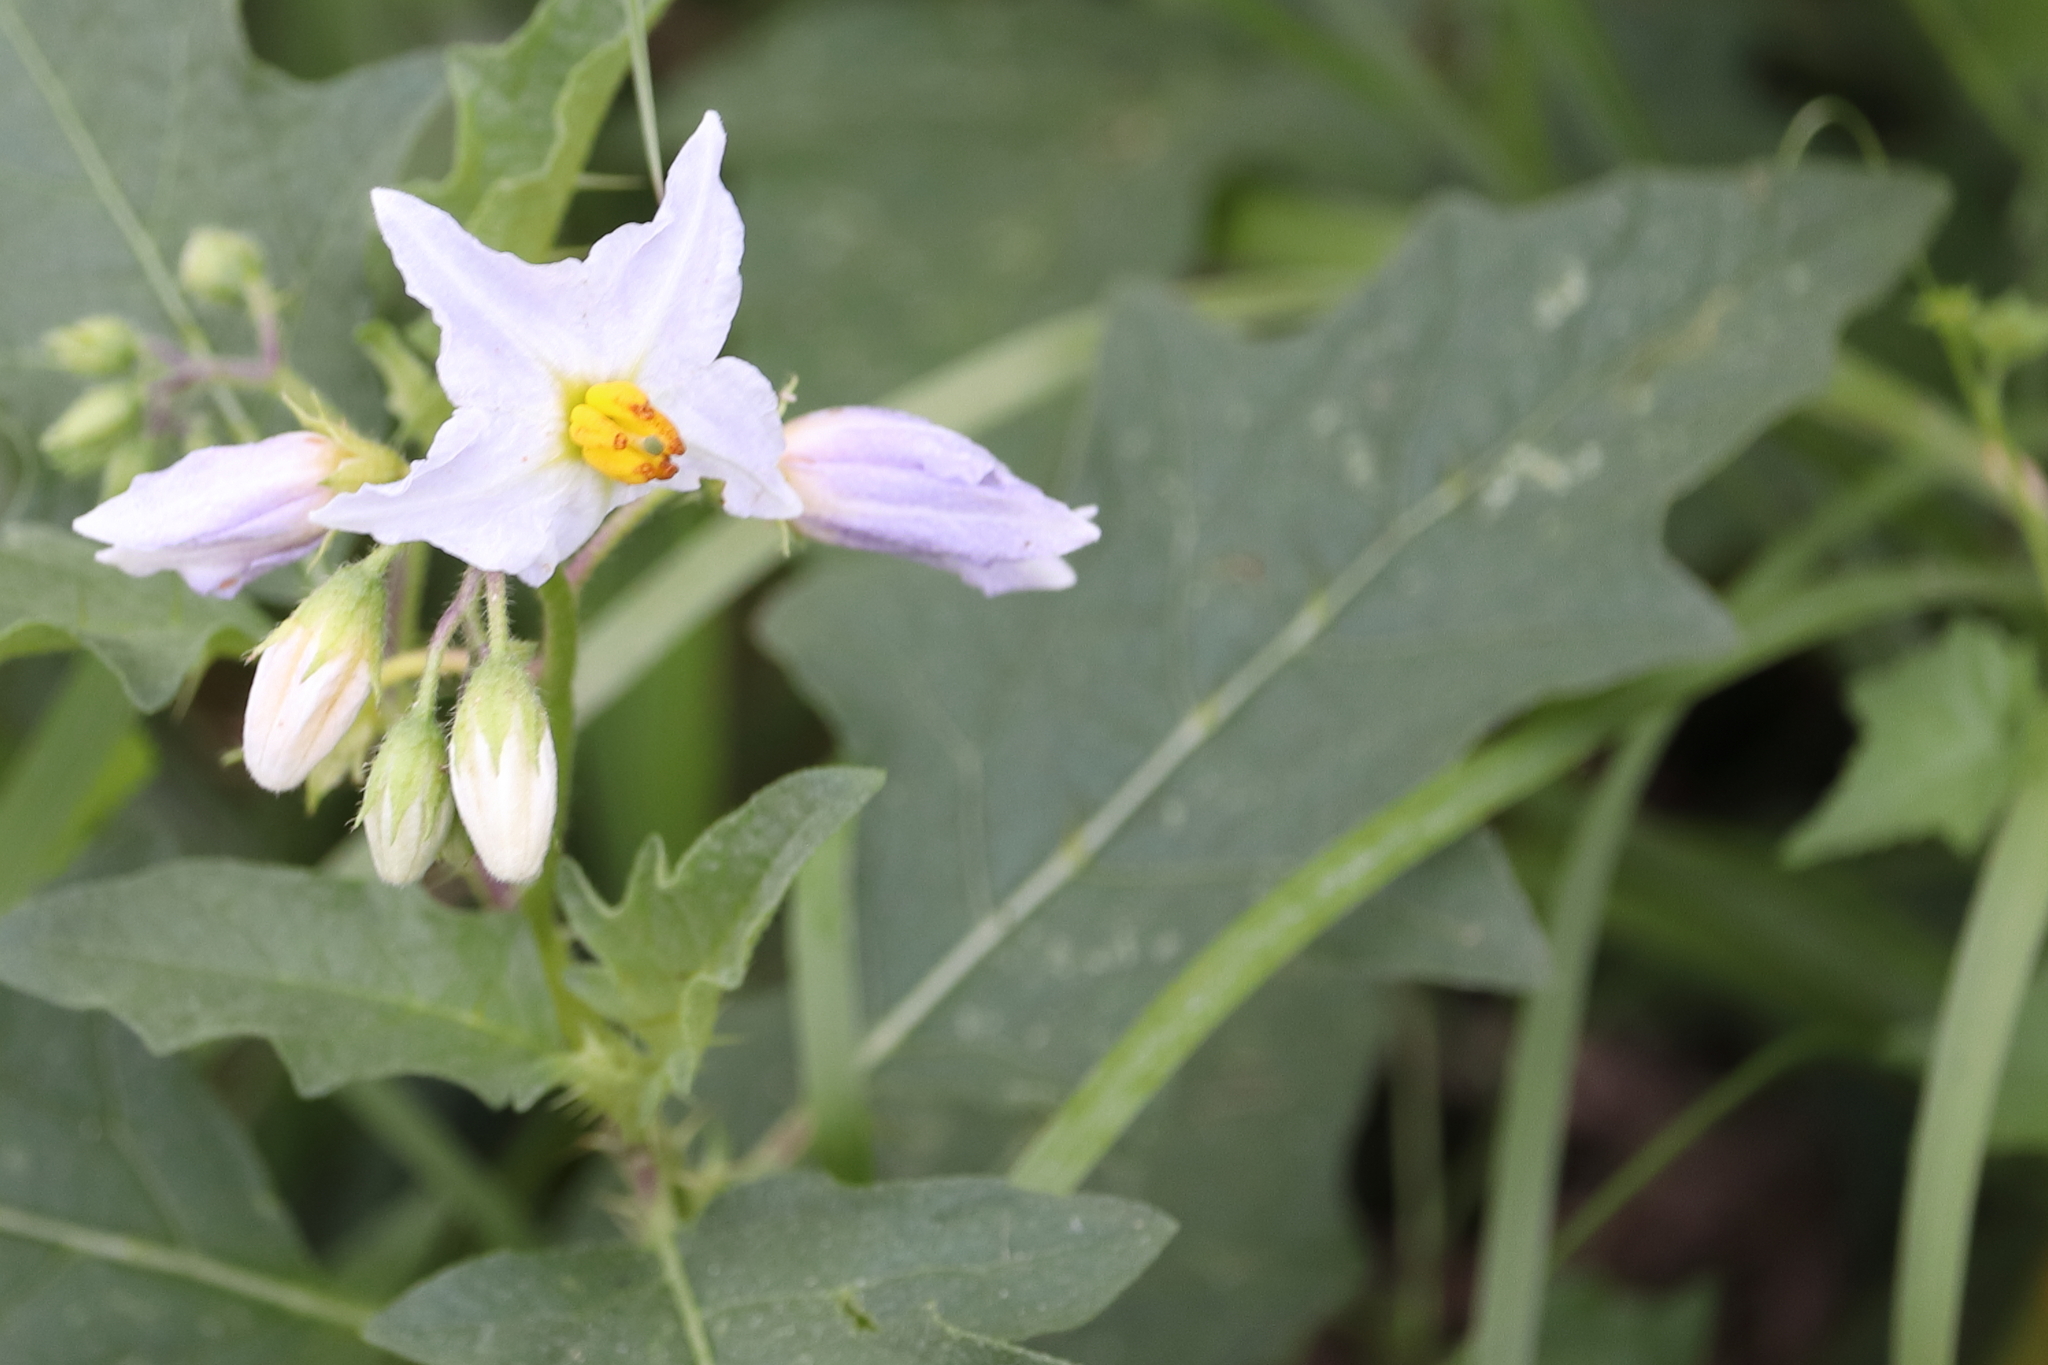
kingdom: Plantae
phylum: Tracheophyta
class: Magnoliopsida
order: Solanales
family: Solanaceae
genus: Solanum
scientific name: Solanum carolinense
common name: Horse-nettle
